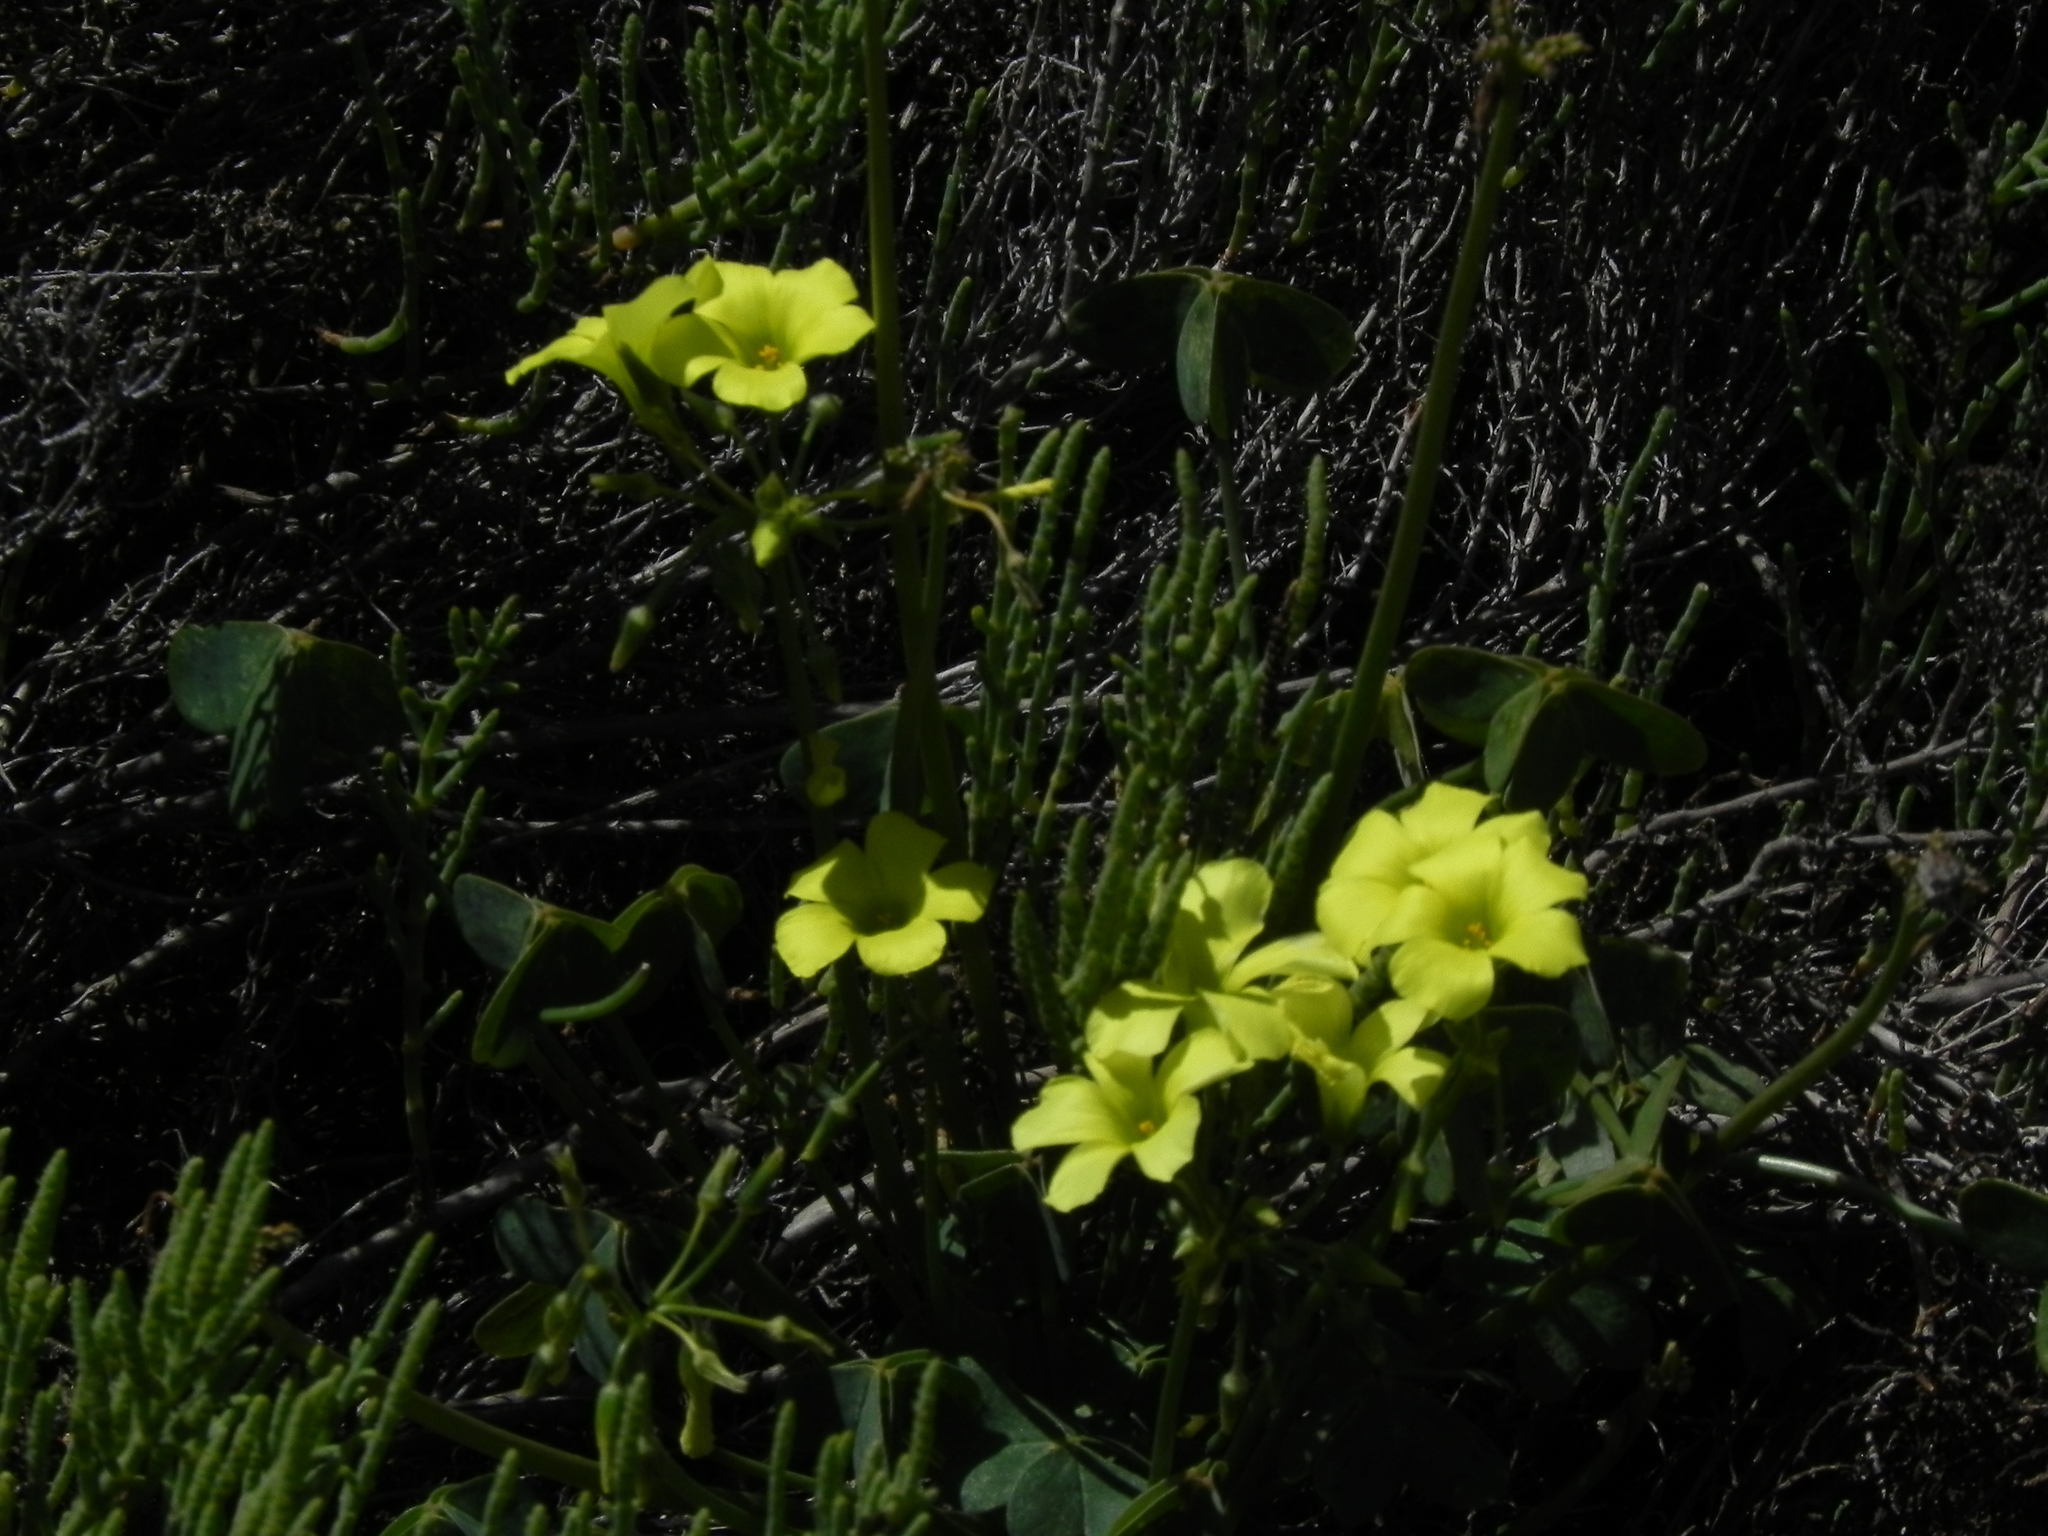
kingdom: Plantae
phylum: Tracheophyta
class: Magnoliopsida
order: Oxalidales
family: Oxalidaceae
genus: Oxalis
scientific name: Oxalis pes-caprae
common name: Bermuda-buttercup
